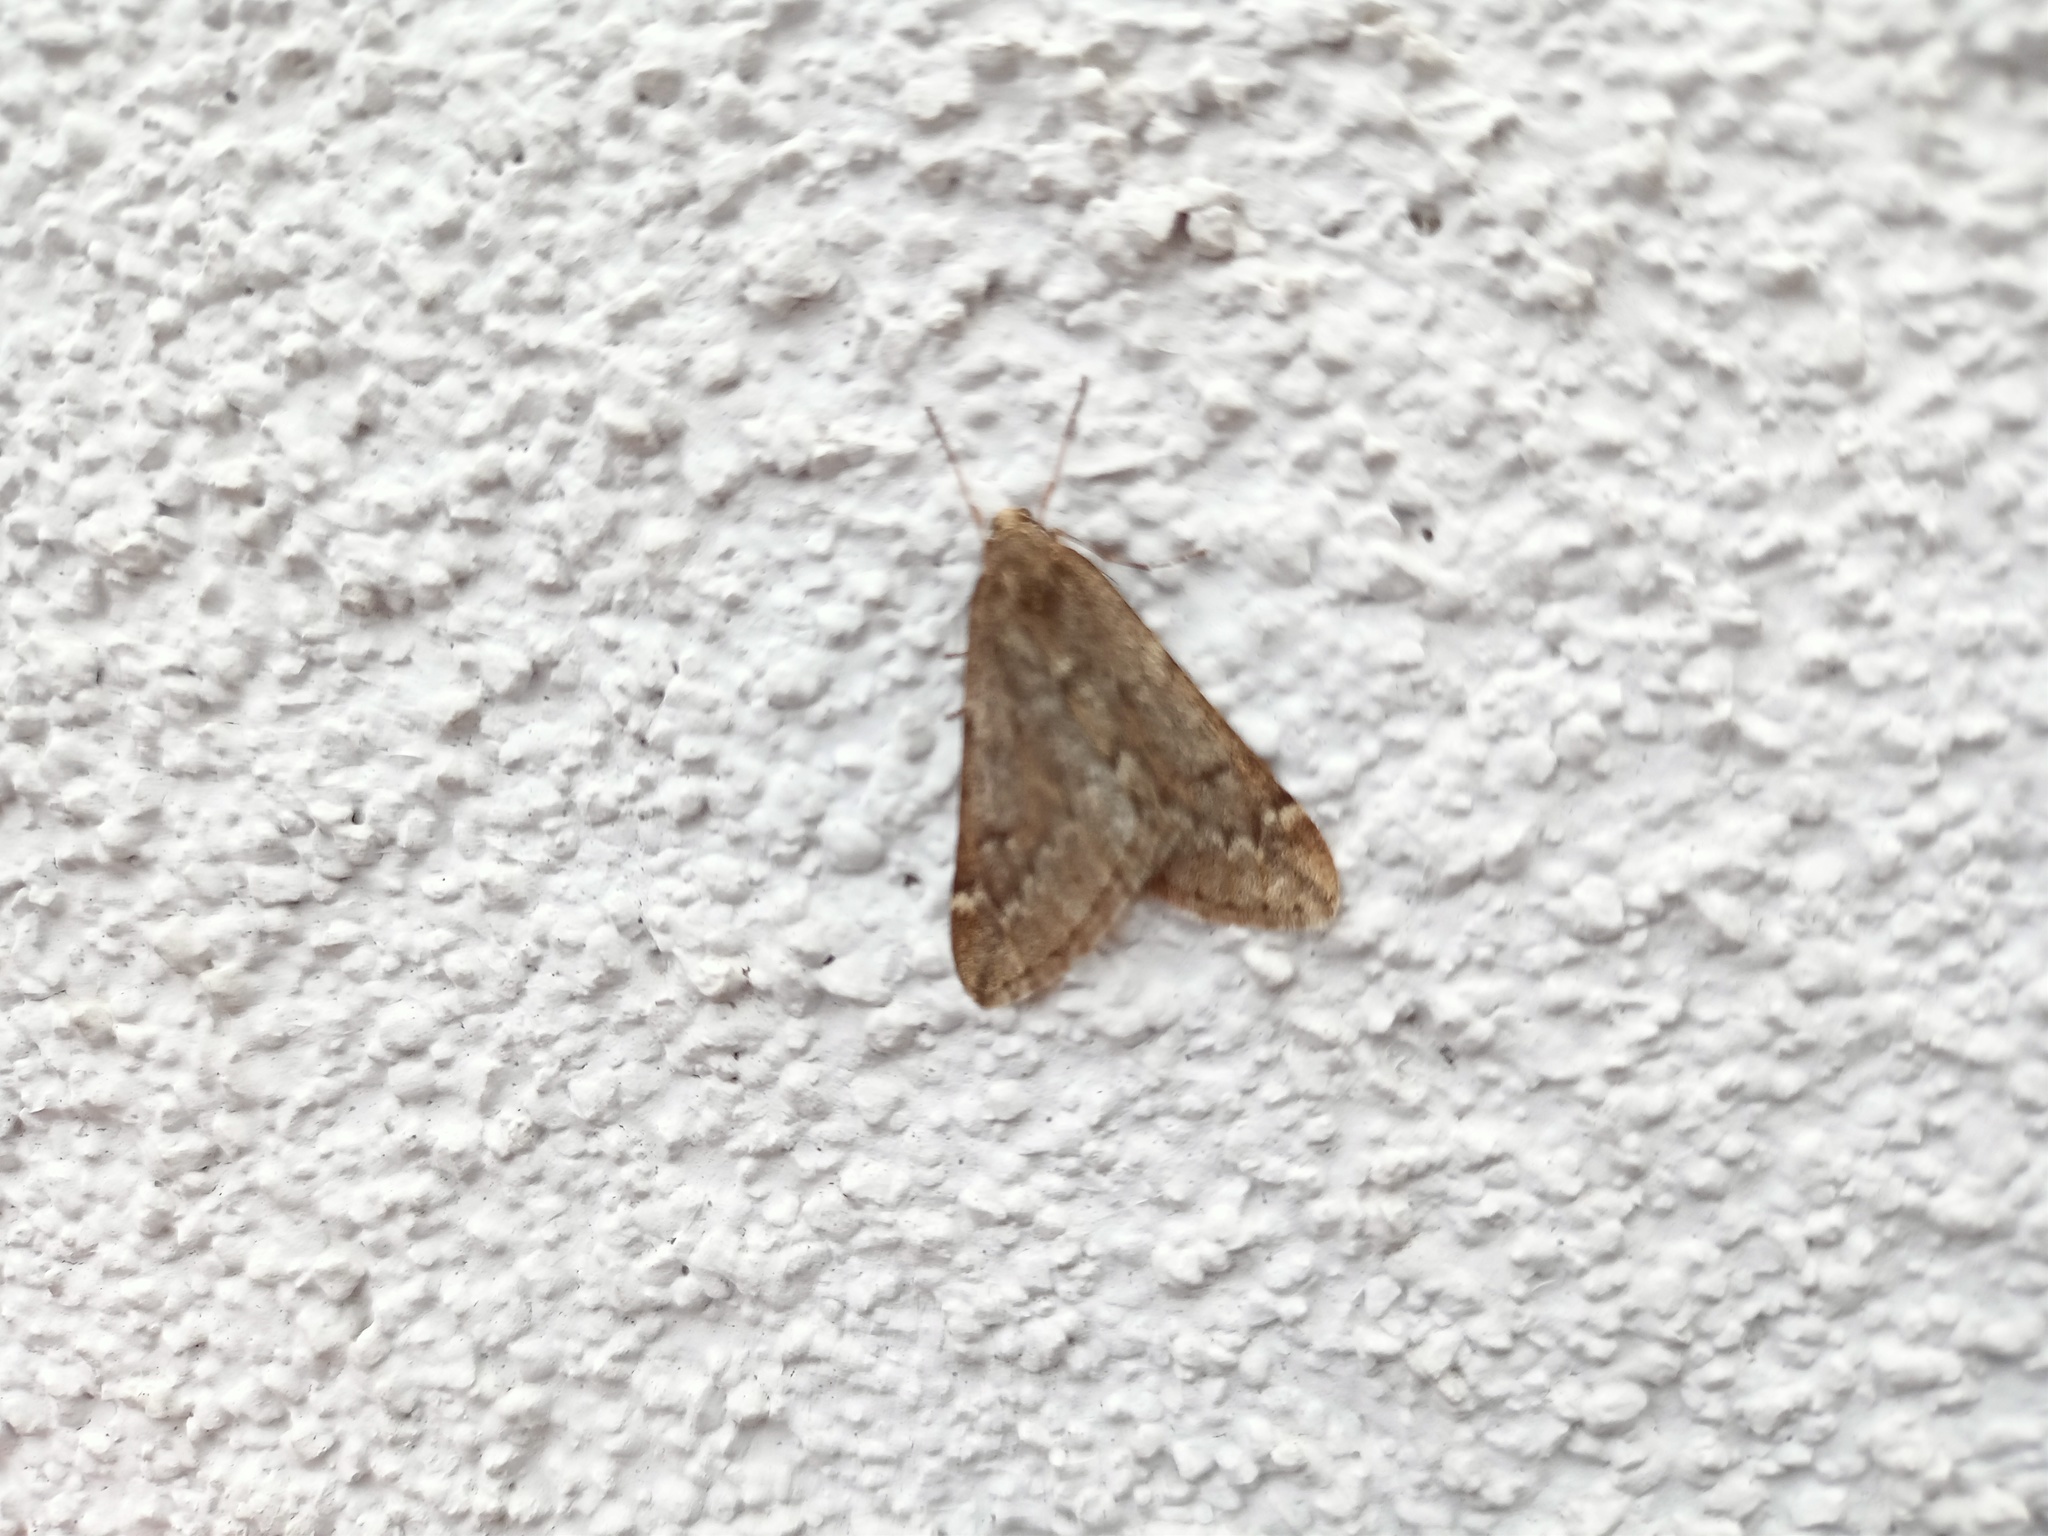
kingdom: Animalia
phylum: Arthropoda
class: Insecta
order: Lepidoptera
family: Geometridae
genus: Alsophila
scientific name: Alsophila aescularia
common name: March moth
